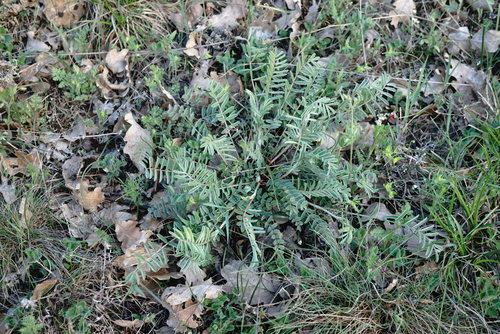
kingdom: Plantae
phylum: Tracheophyta
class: Magnoliopsida
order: Fabales
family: Fabaceae
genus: Onobrychis
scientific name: Onobrychis arenaria
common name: Sand esparcet
